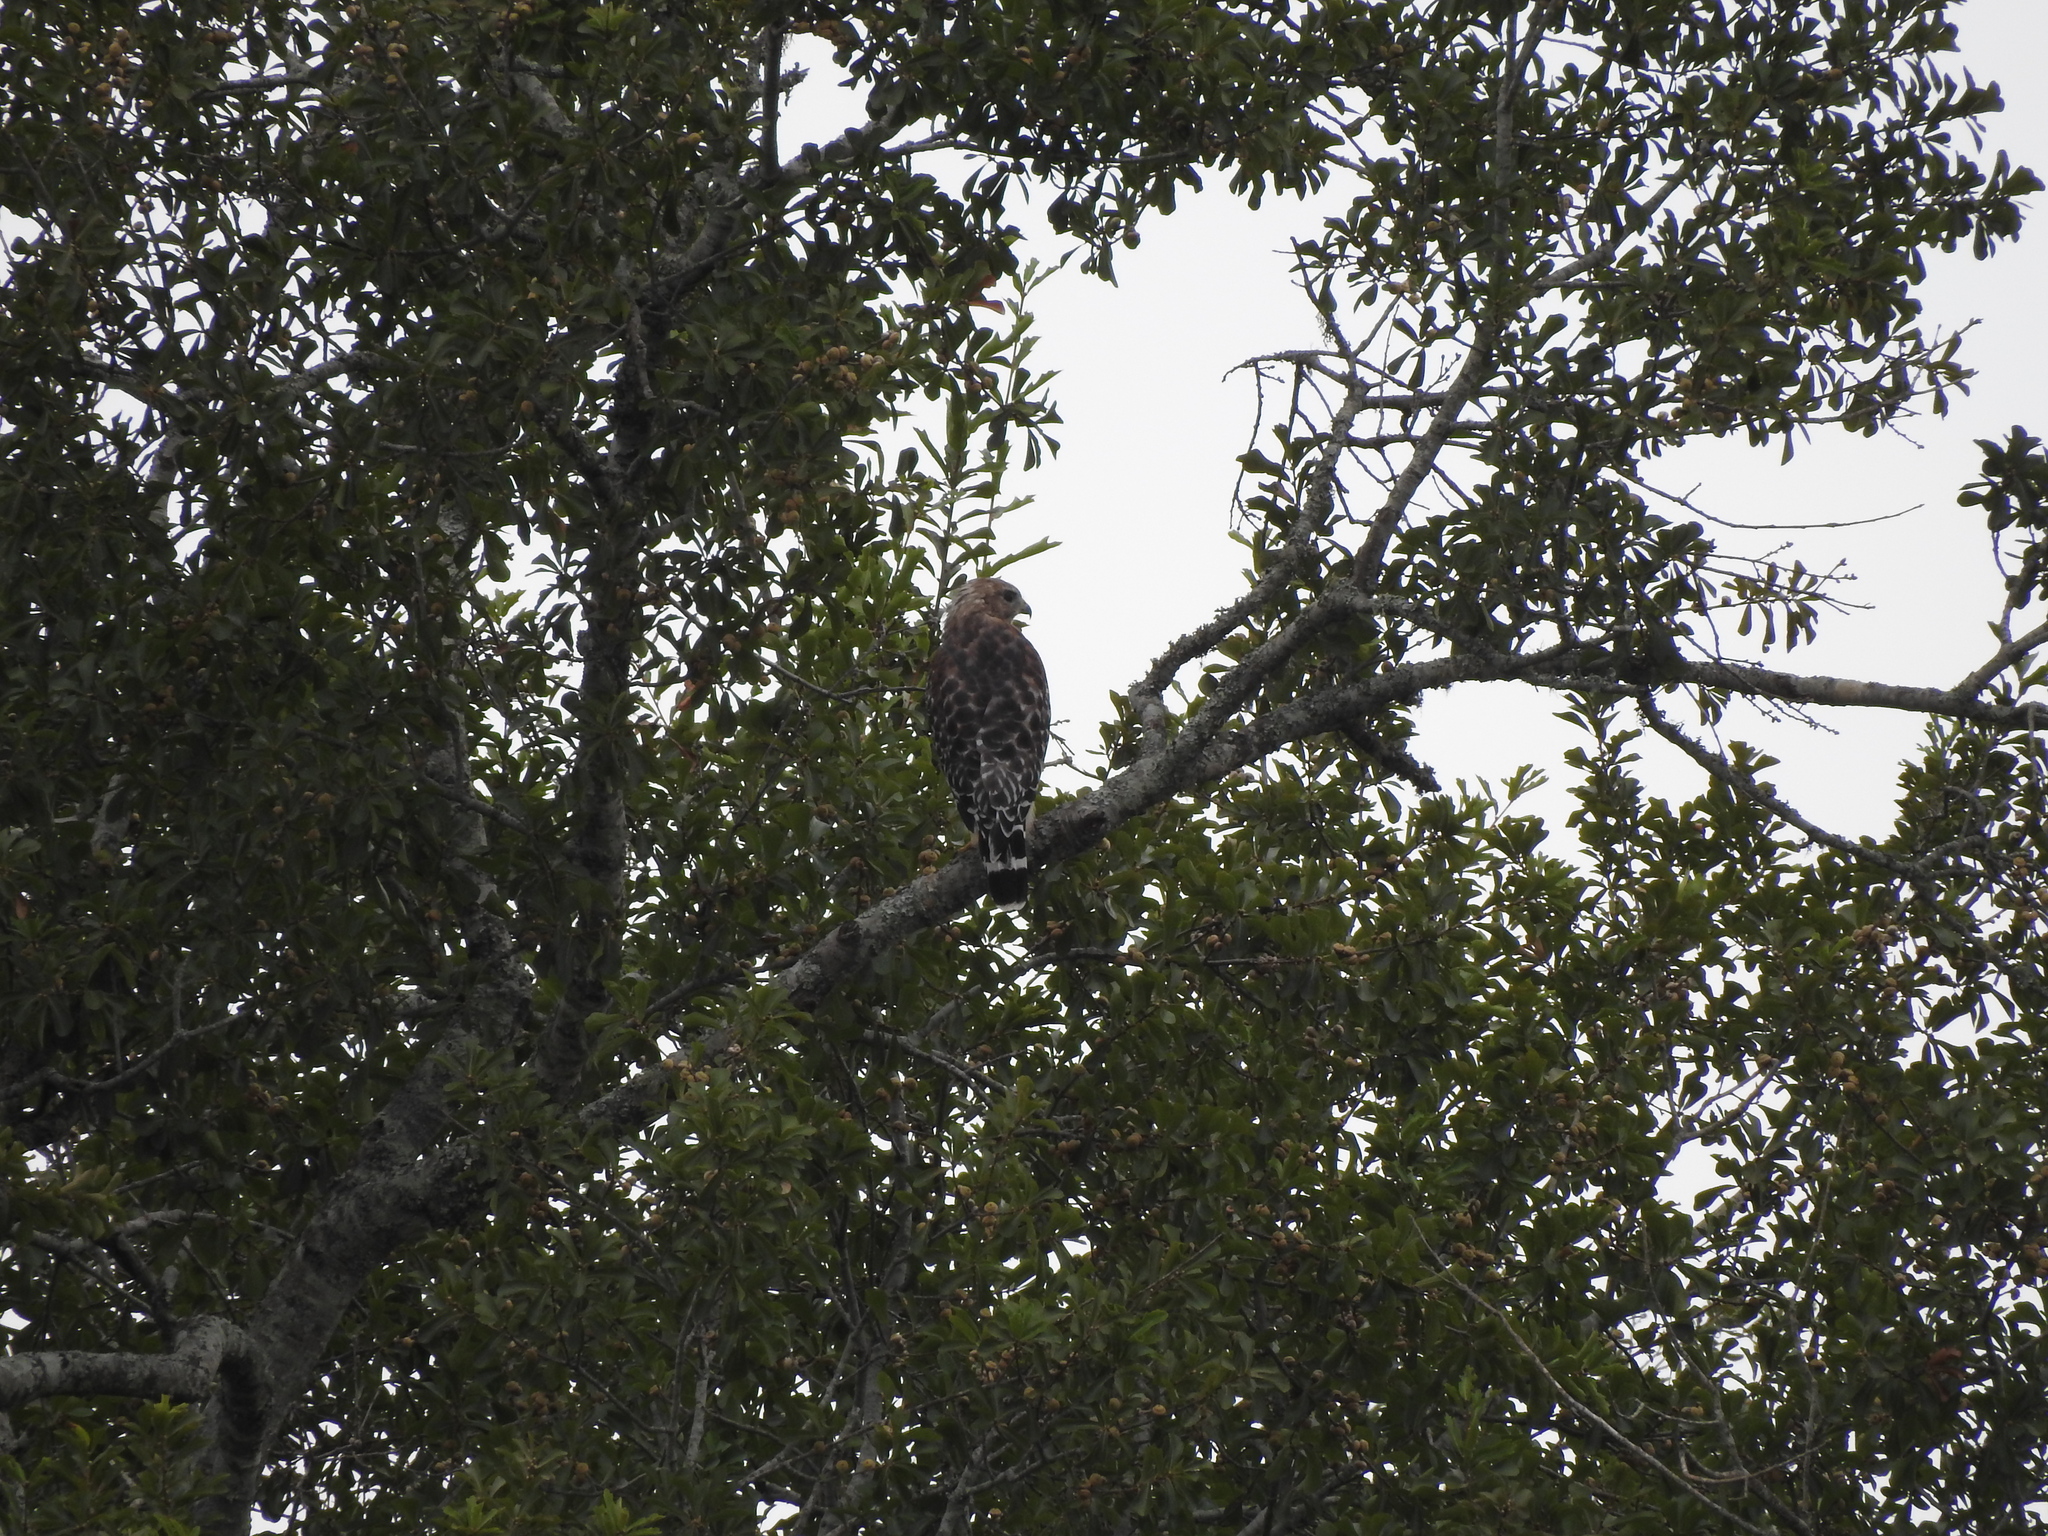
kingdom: Animalia
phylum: Chordata
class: Aves
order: Accipitriformes
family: Accipitridae
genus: Buteo
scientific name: Buteo lineatus
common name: Red-shouldered hawk
